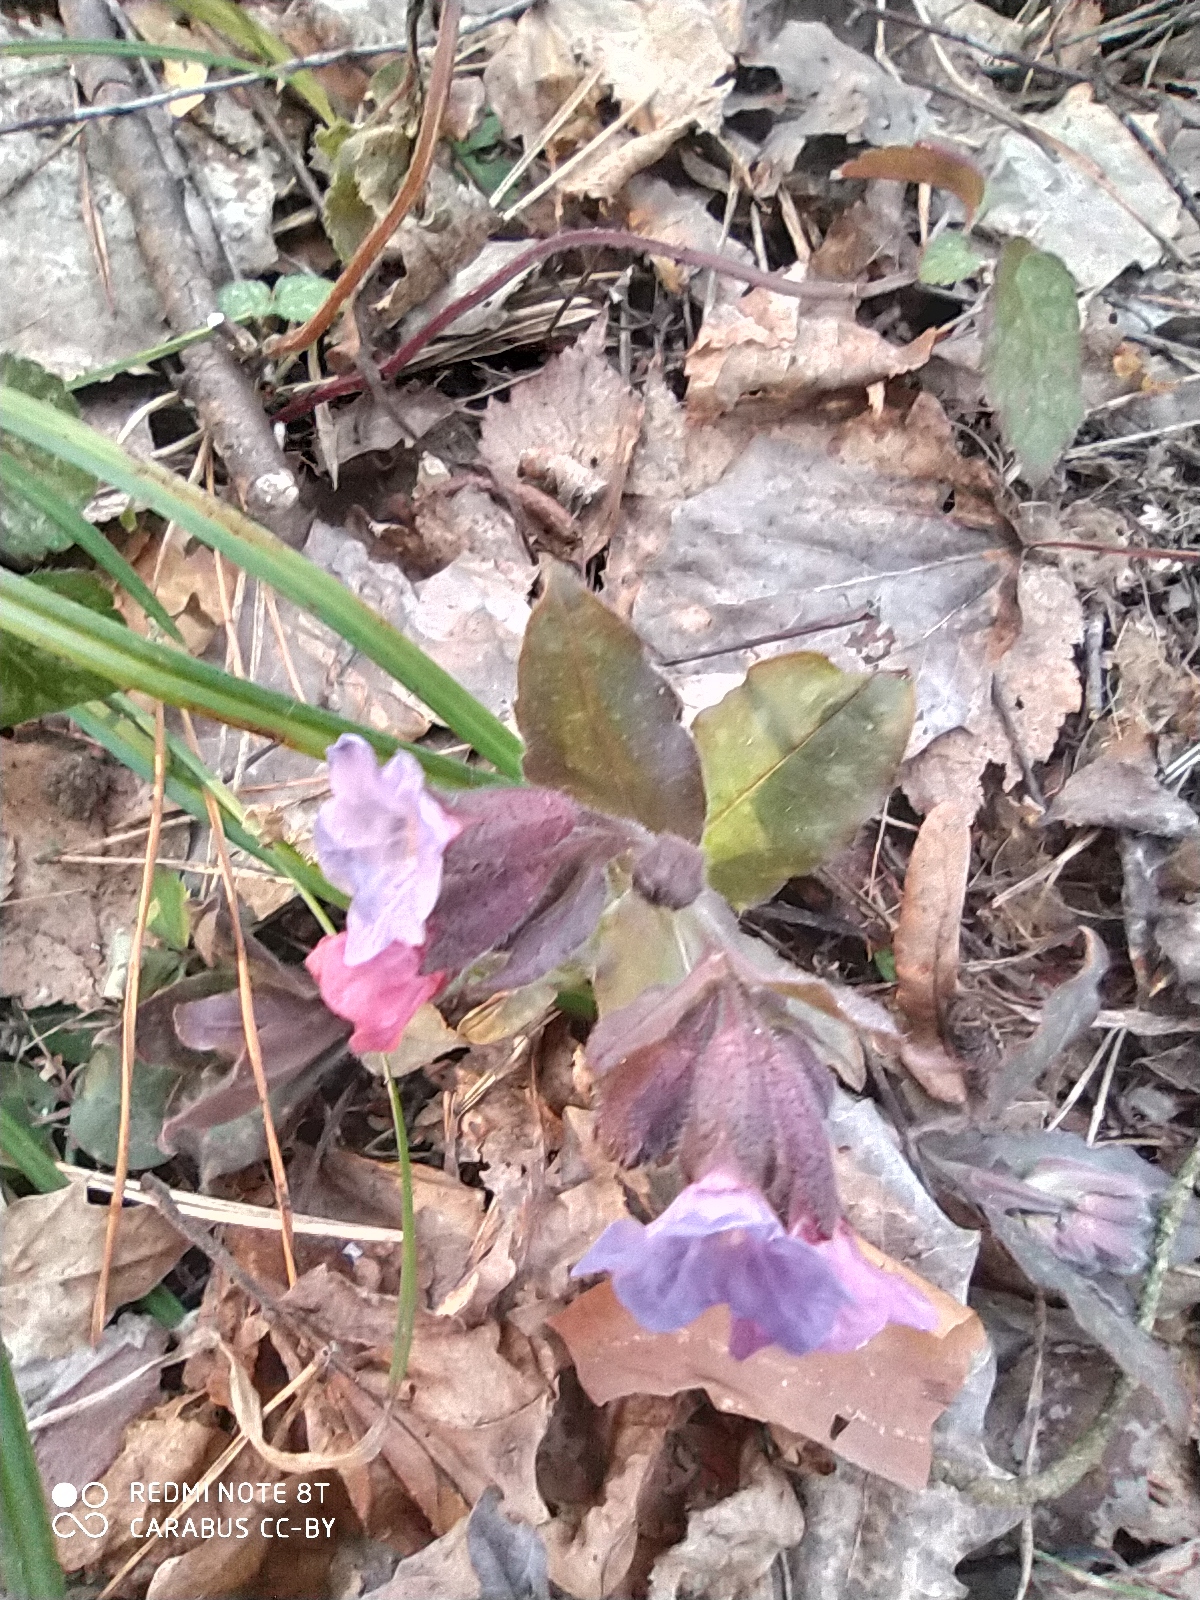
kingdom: Plantae
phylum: Tracheophyta
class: Magnoliopsida
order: Boraginales
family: Boraginaceae
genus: Pulmonaria
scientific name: Pulmonaria obscura
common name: Suffolk lungwort
